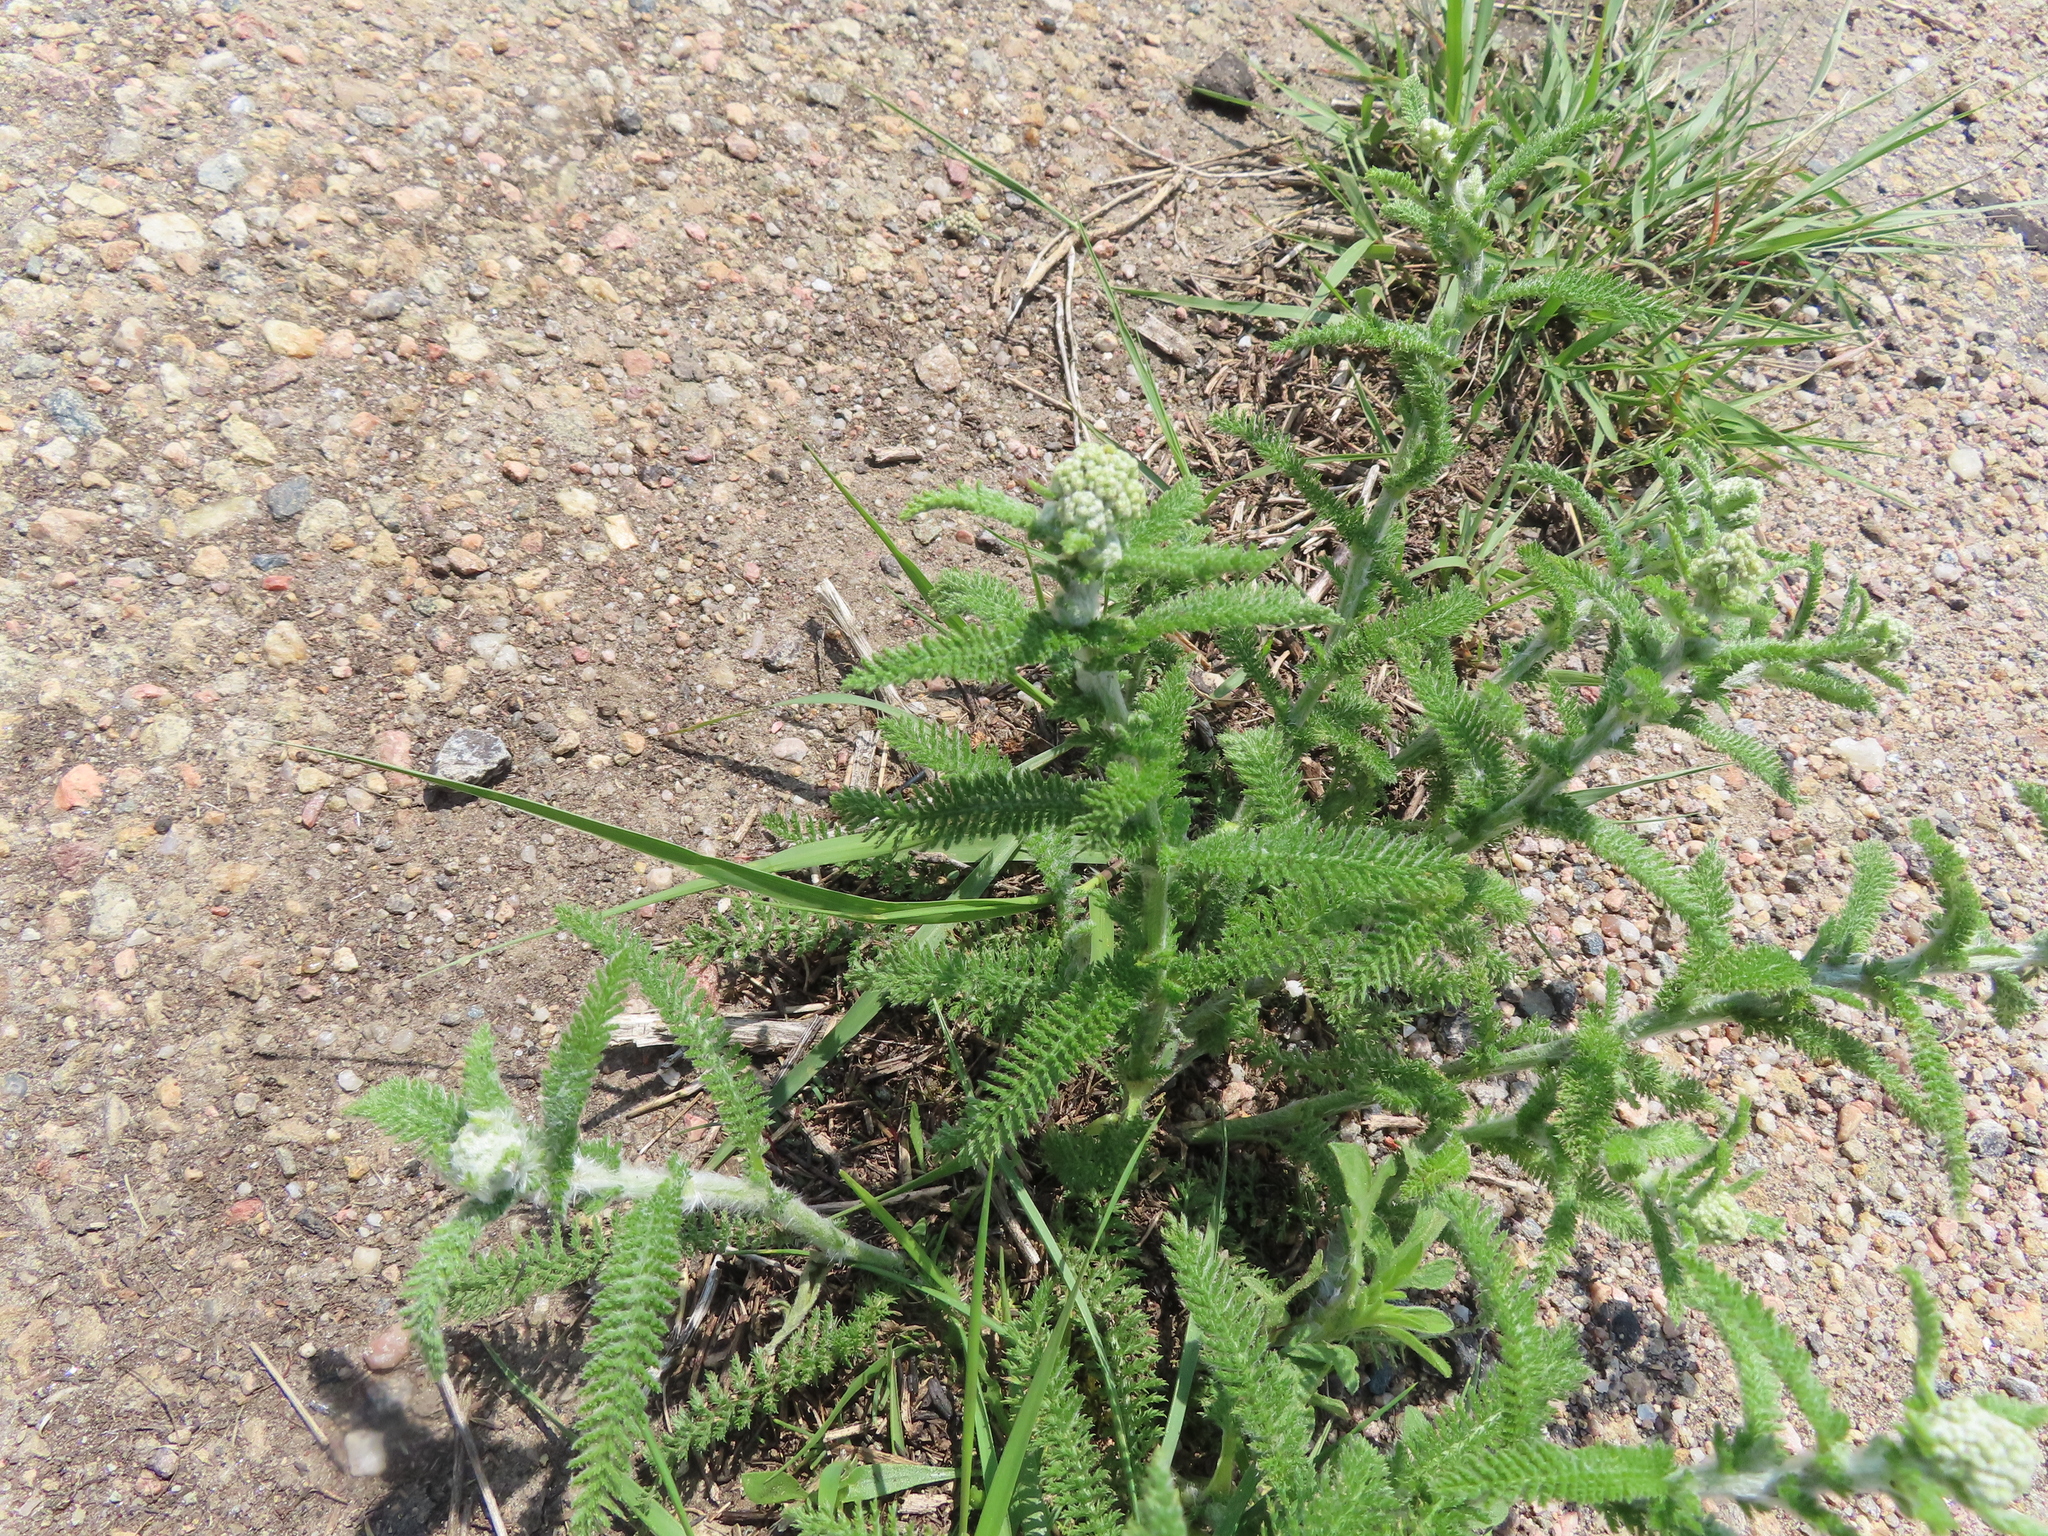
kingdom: Plantae
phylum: Tracheophyta
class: Magnoliopsida
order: Asterales
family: Asteraceae
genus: Achillea
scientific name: Achillea millefolium
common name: Yarrow
